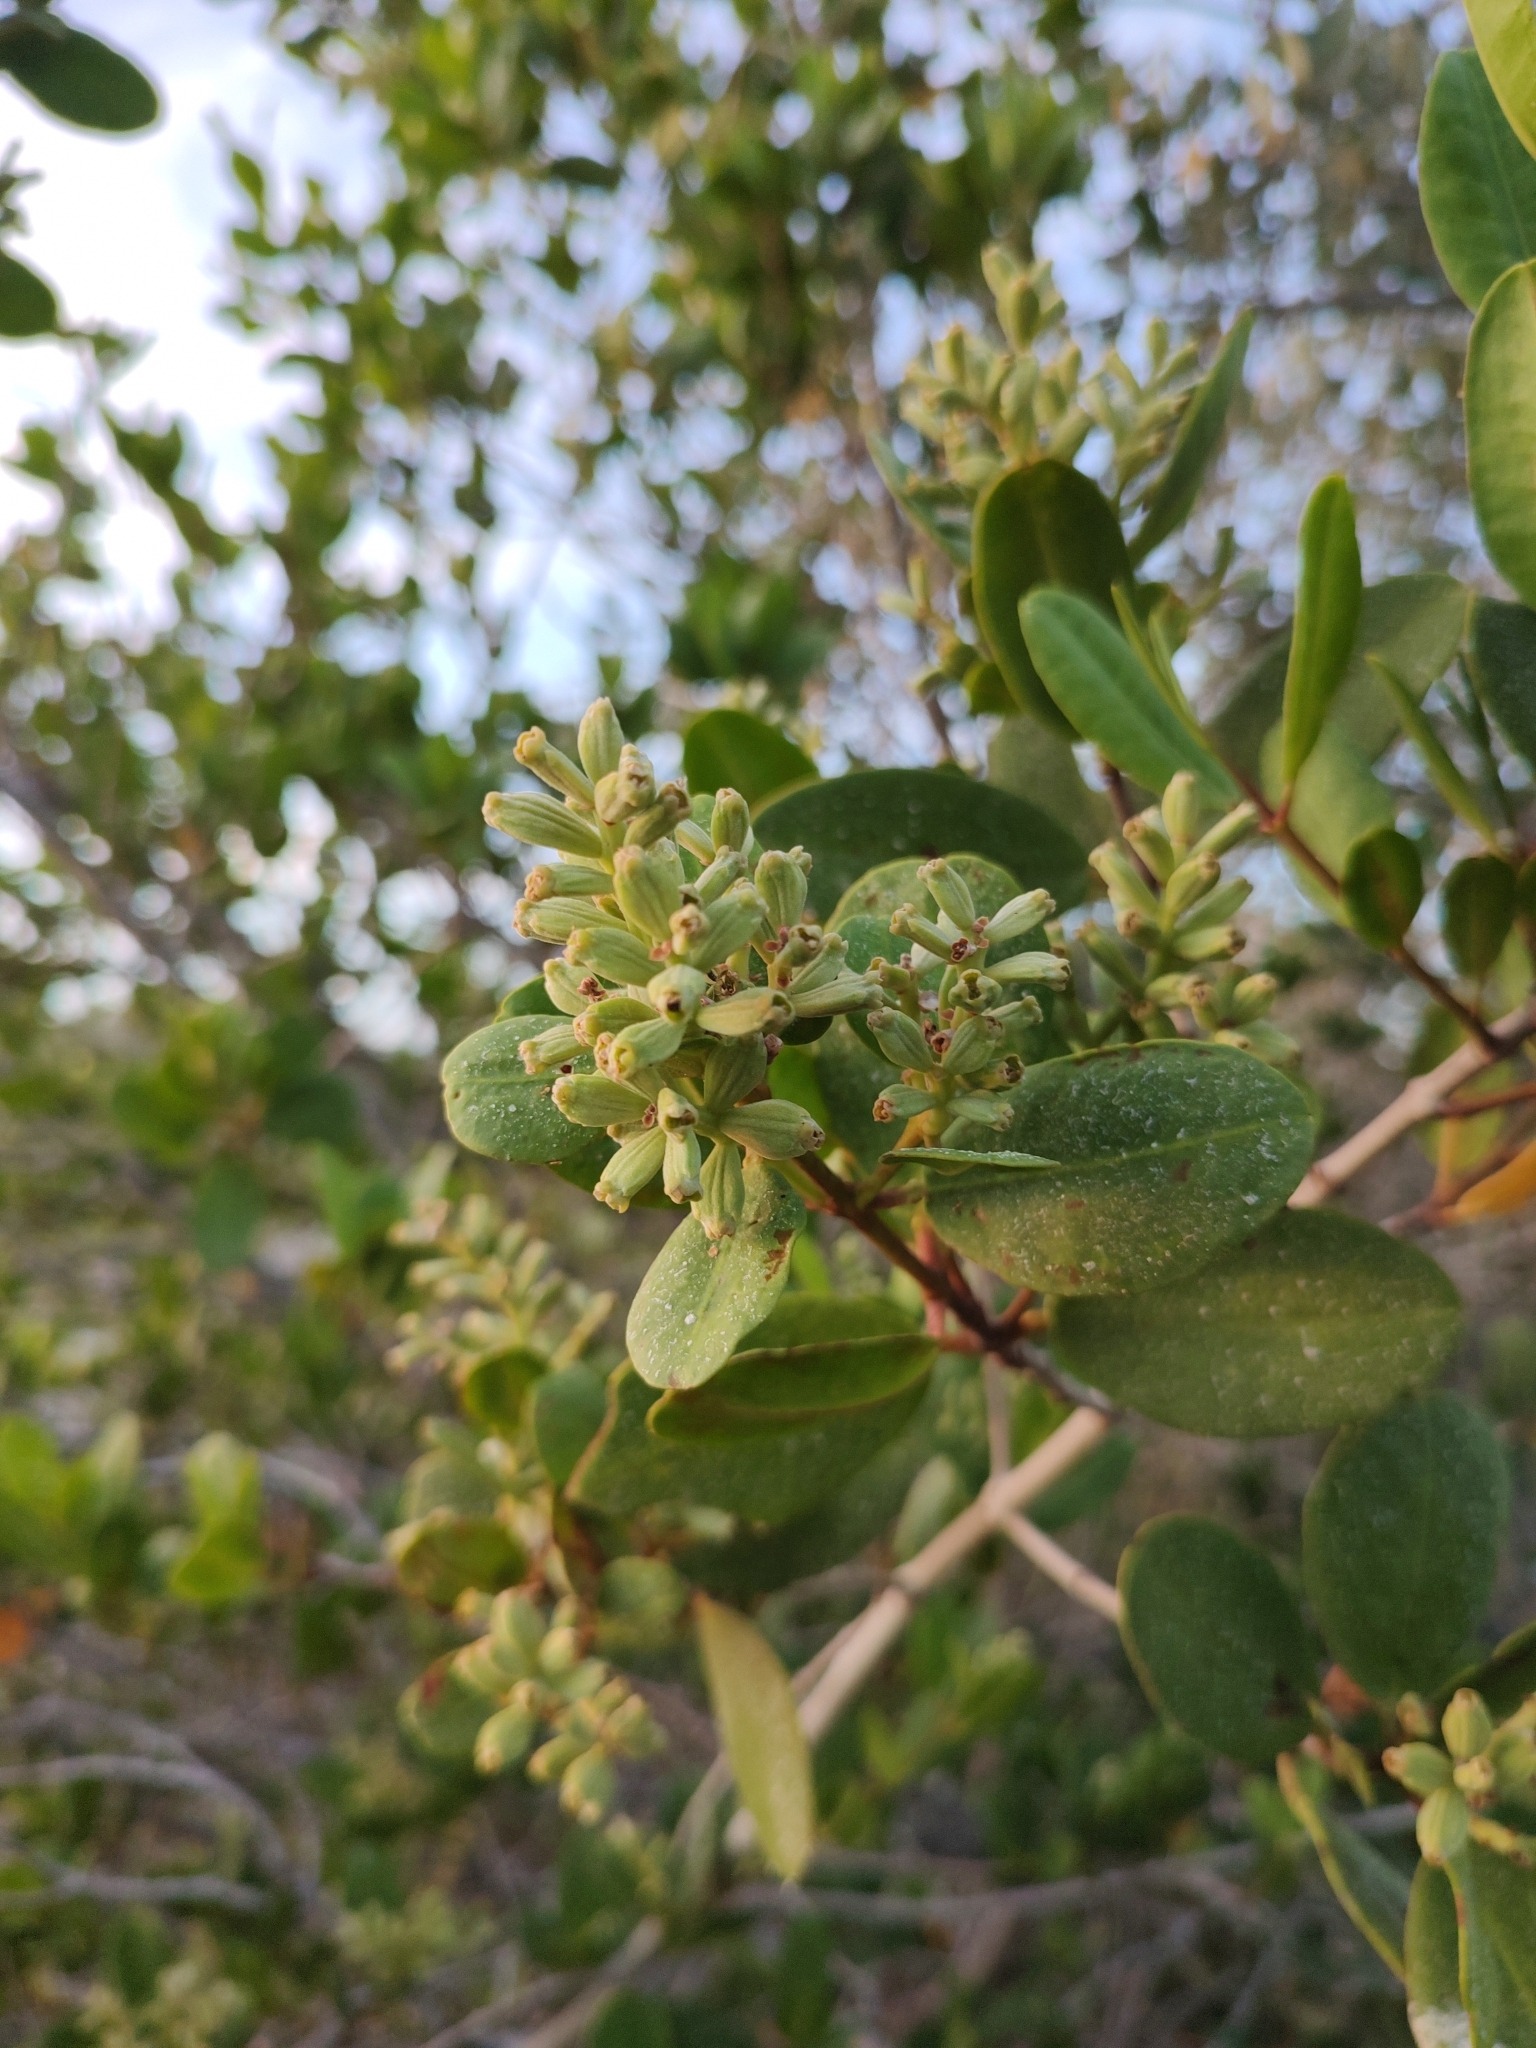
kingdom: Plantae
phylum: Tracheophyta
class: Magnoliopsida
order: Myrtales
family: Combretaceae
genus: Laguncularia
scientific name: Laguncularia racemosa
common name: White mangrove
